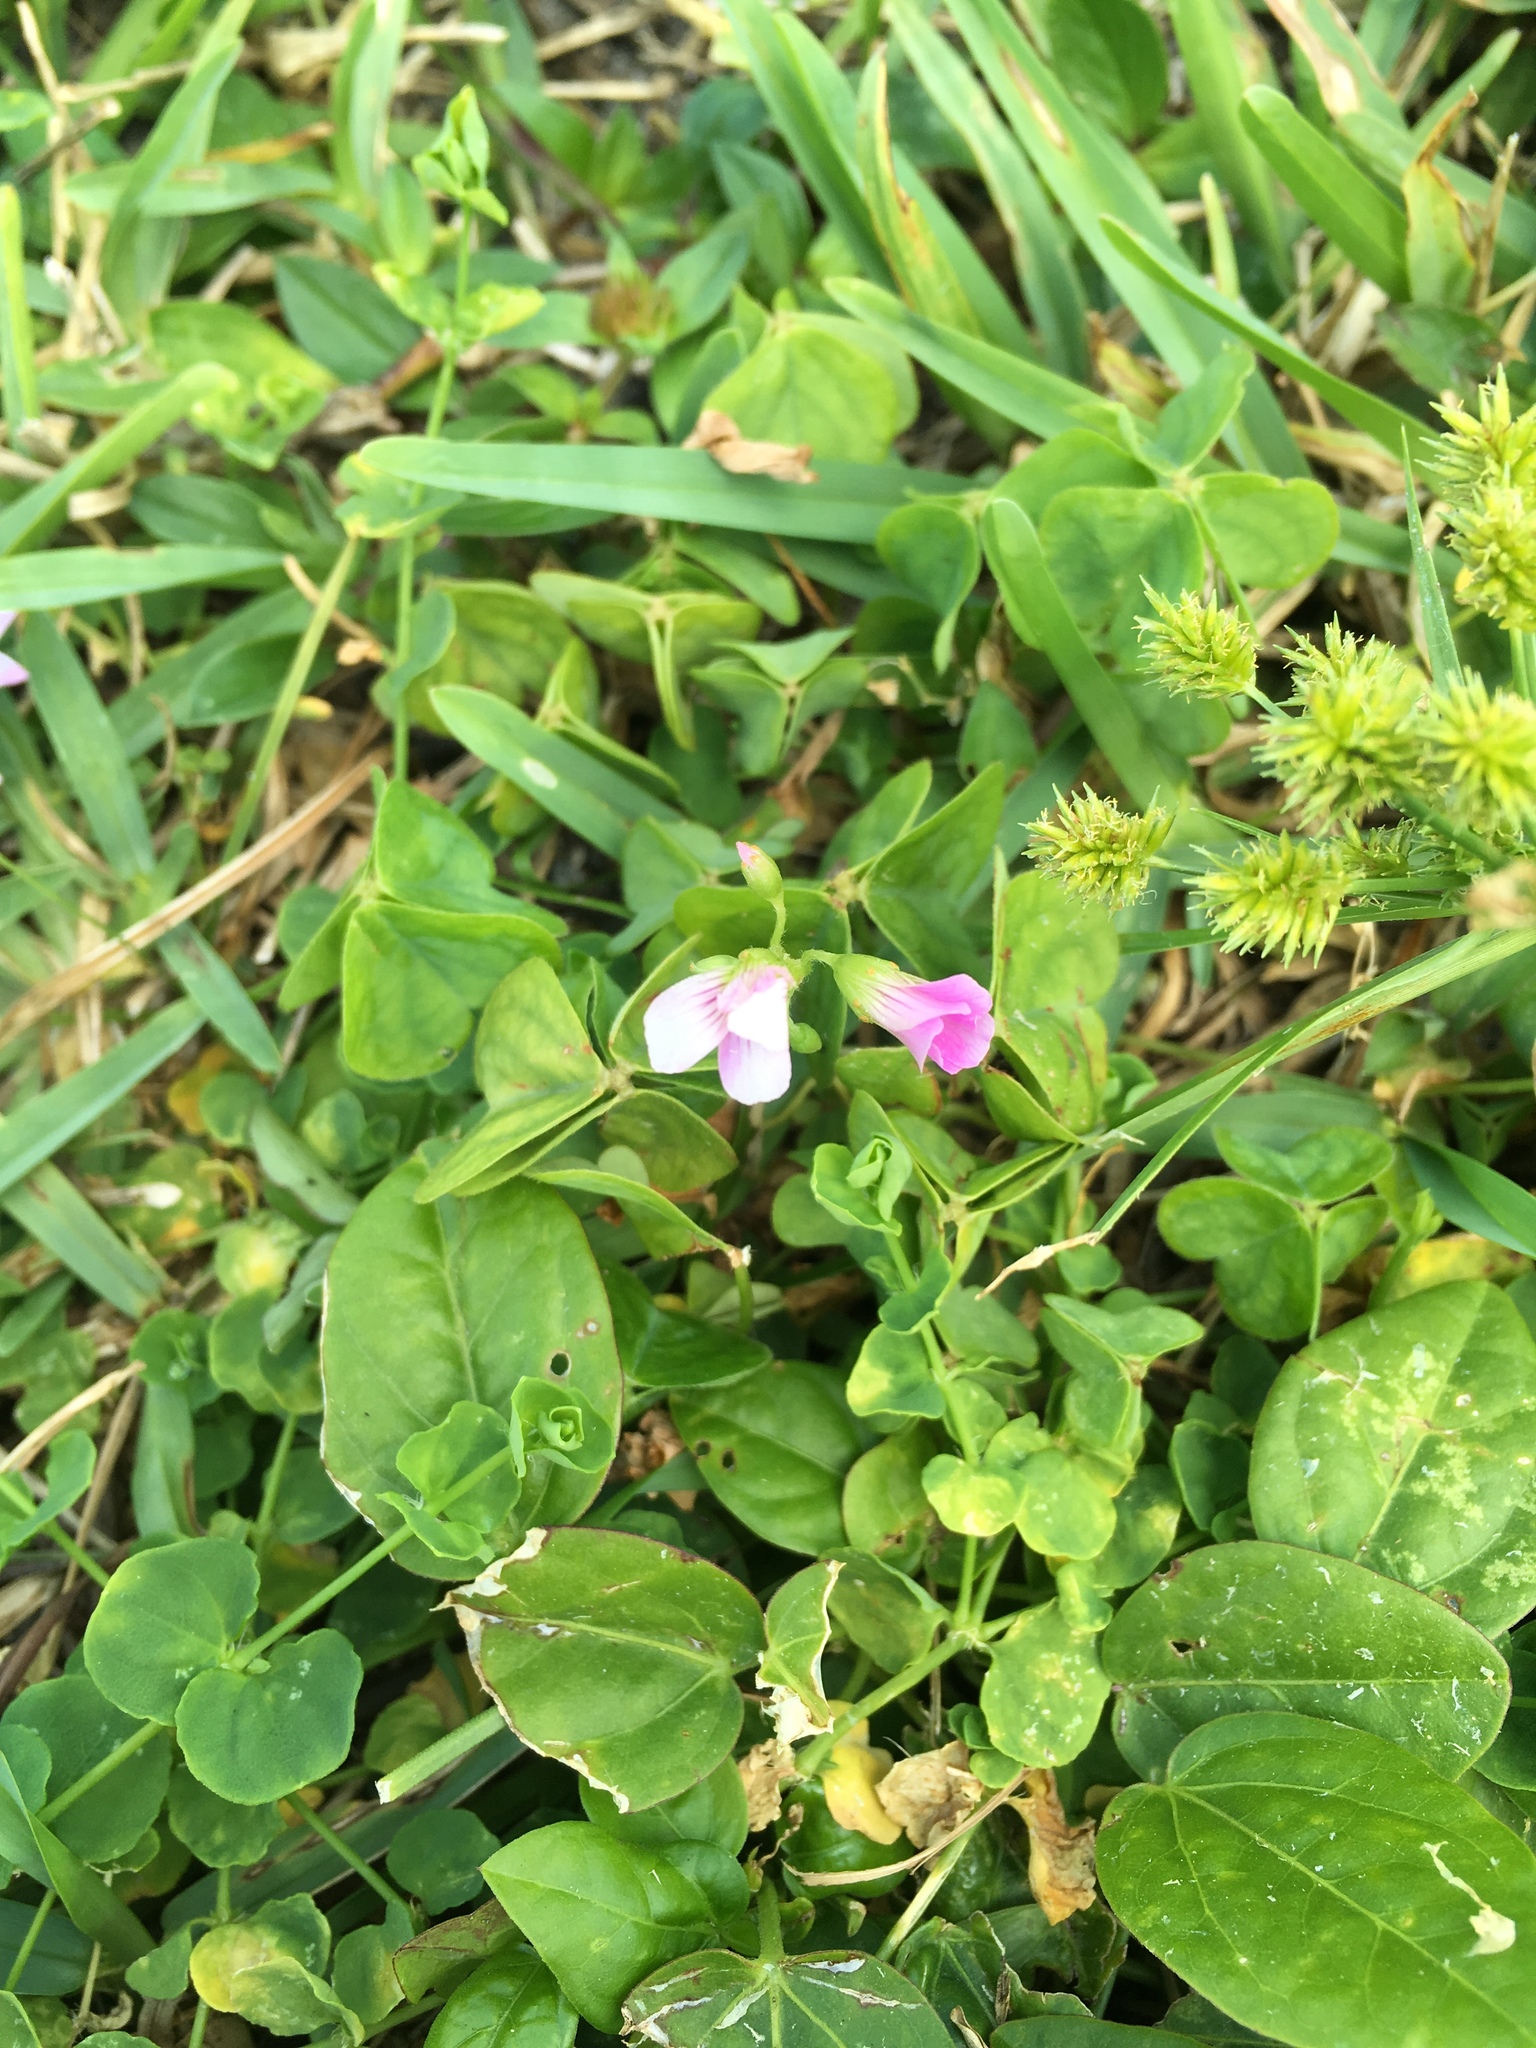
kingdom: Plantae
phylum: Tracheophyta
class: Magnoliopsida
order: Oxalidales
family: Oxalidaceae
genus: Oxalis
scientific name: Oxalis debilis
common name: Large-flowered pink-sorrel
